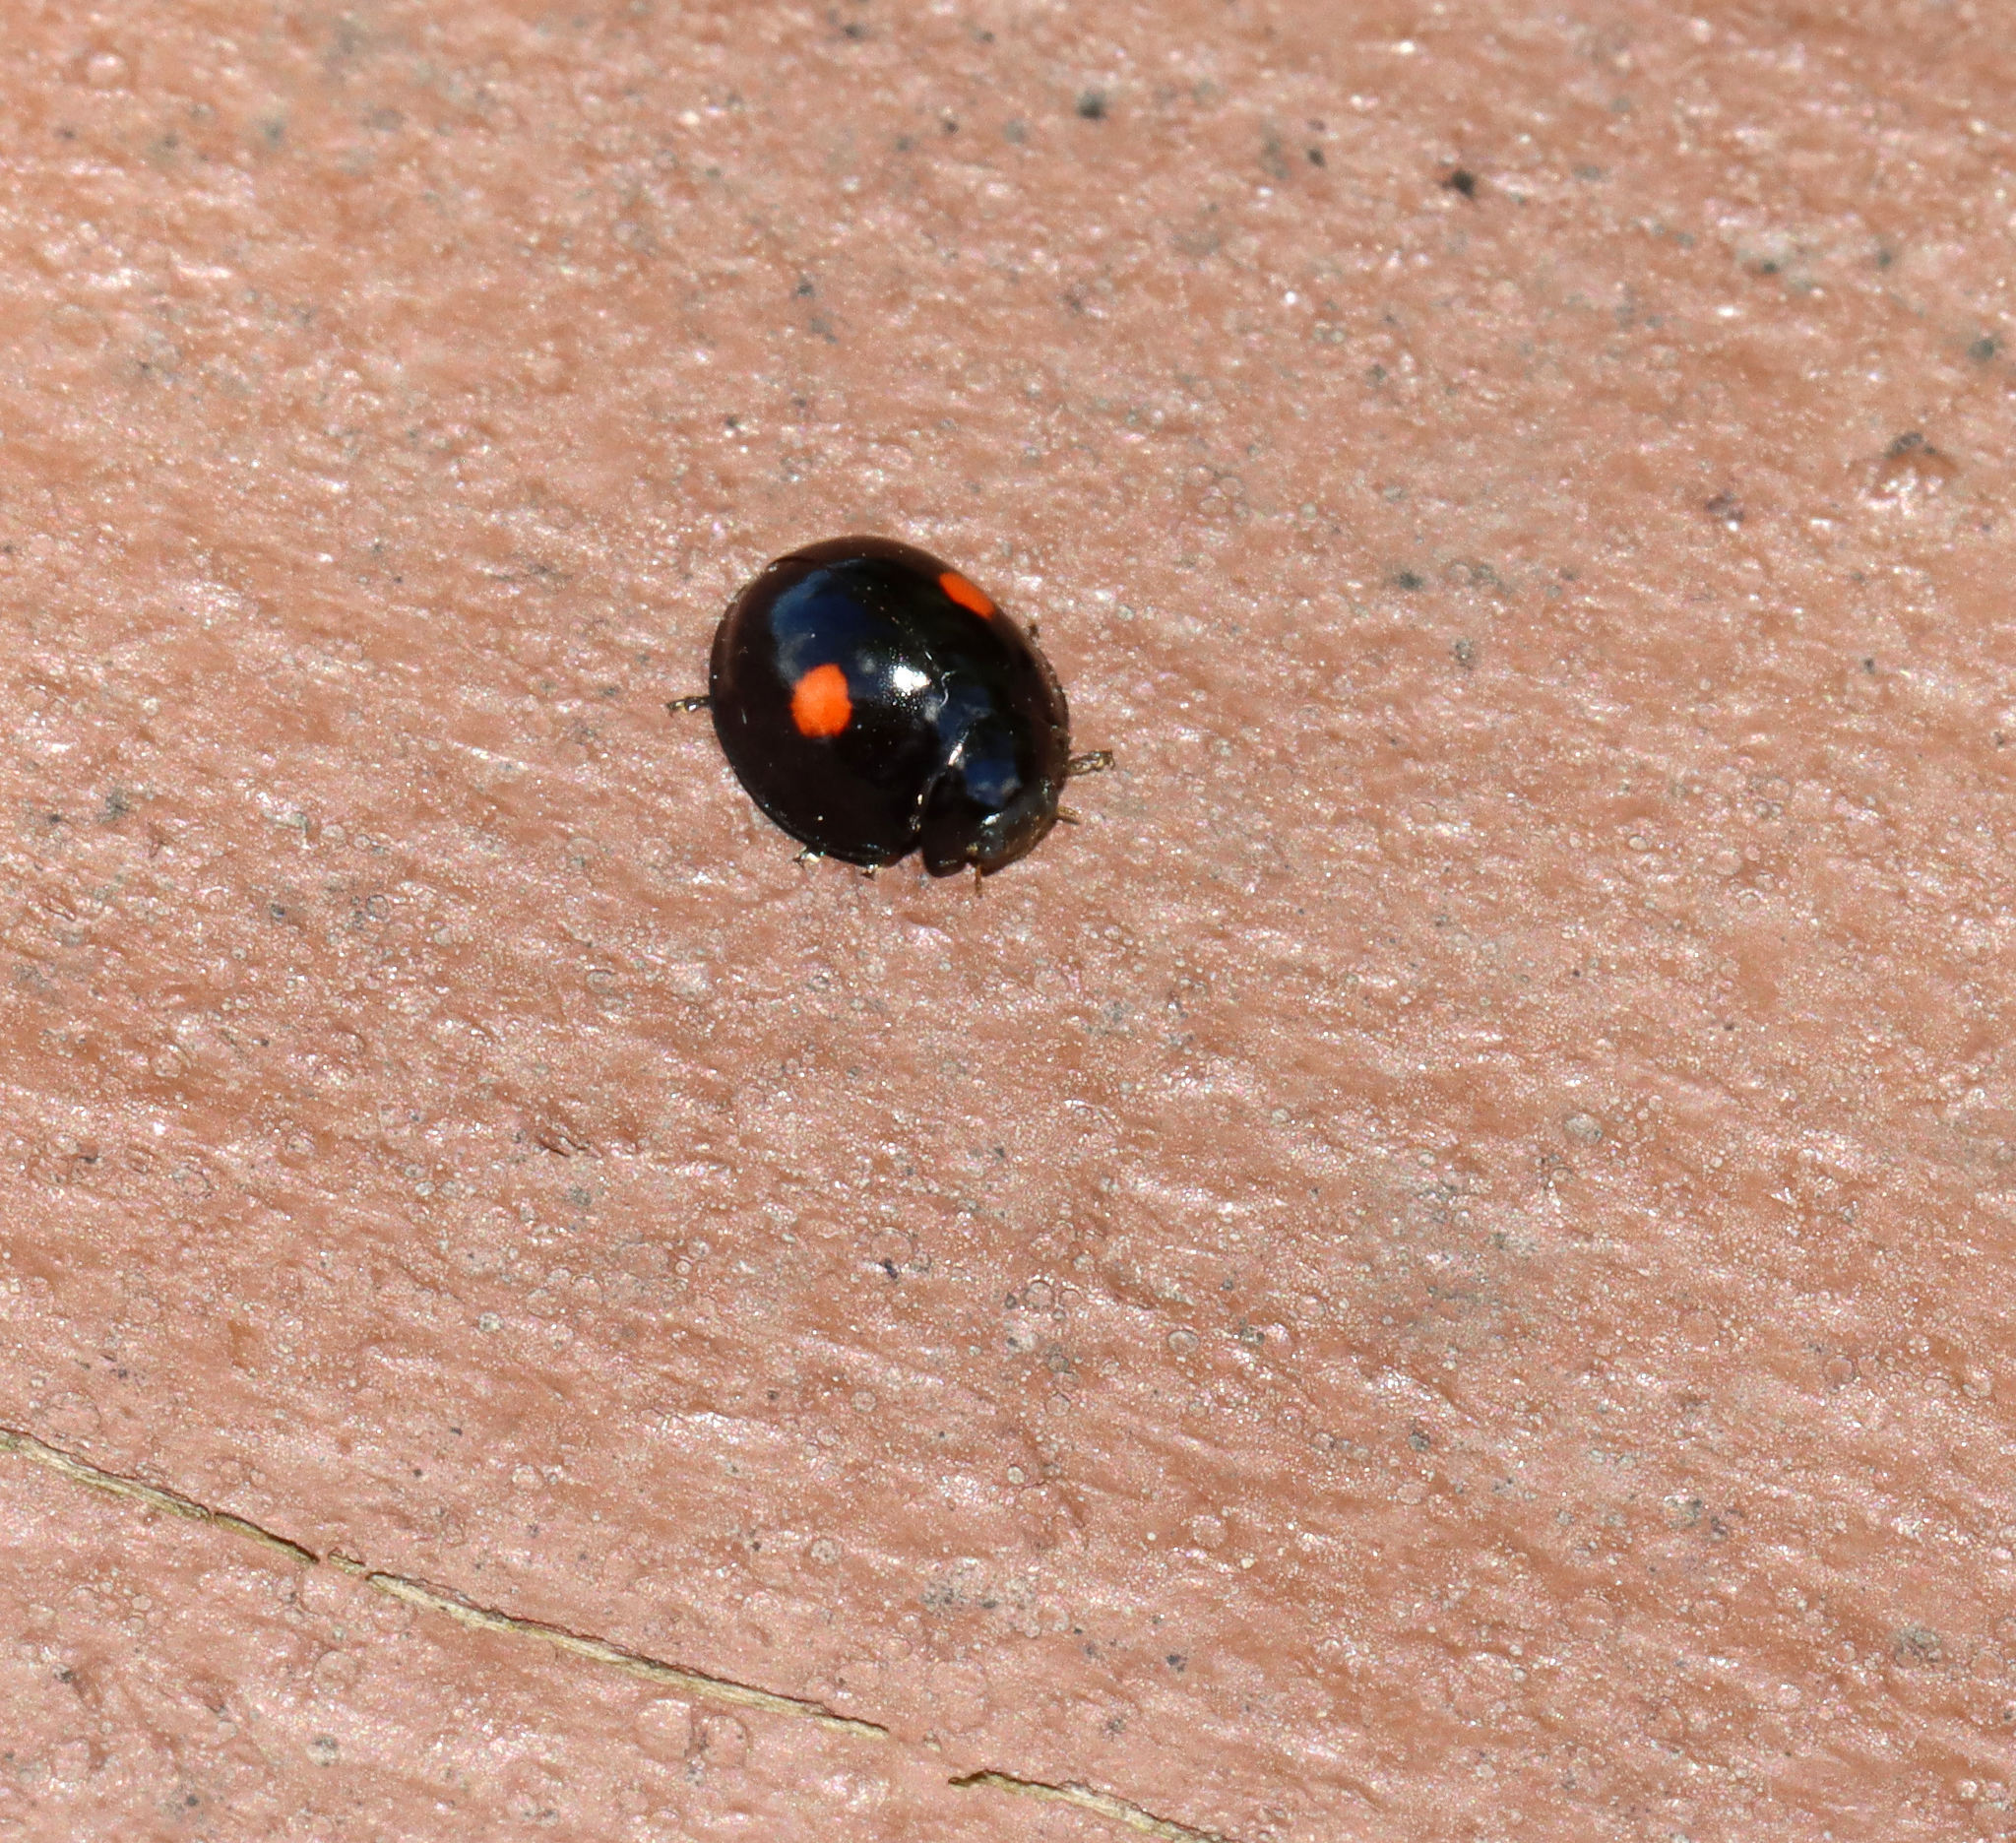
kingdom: Animalia
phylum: Arthropoda
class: Insecta
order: Coleoptera
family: Coccinellidae
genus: Chilocorus
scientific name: Chilocorus stigma
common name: Twicestabbed lady beetle
